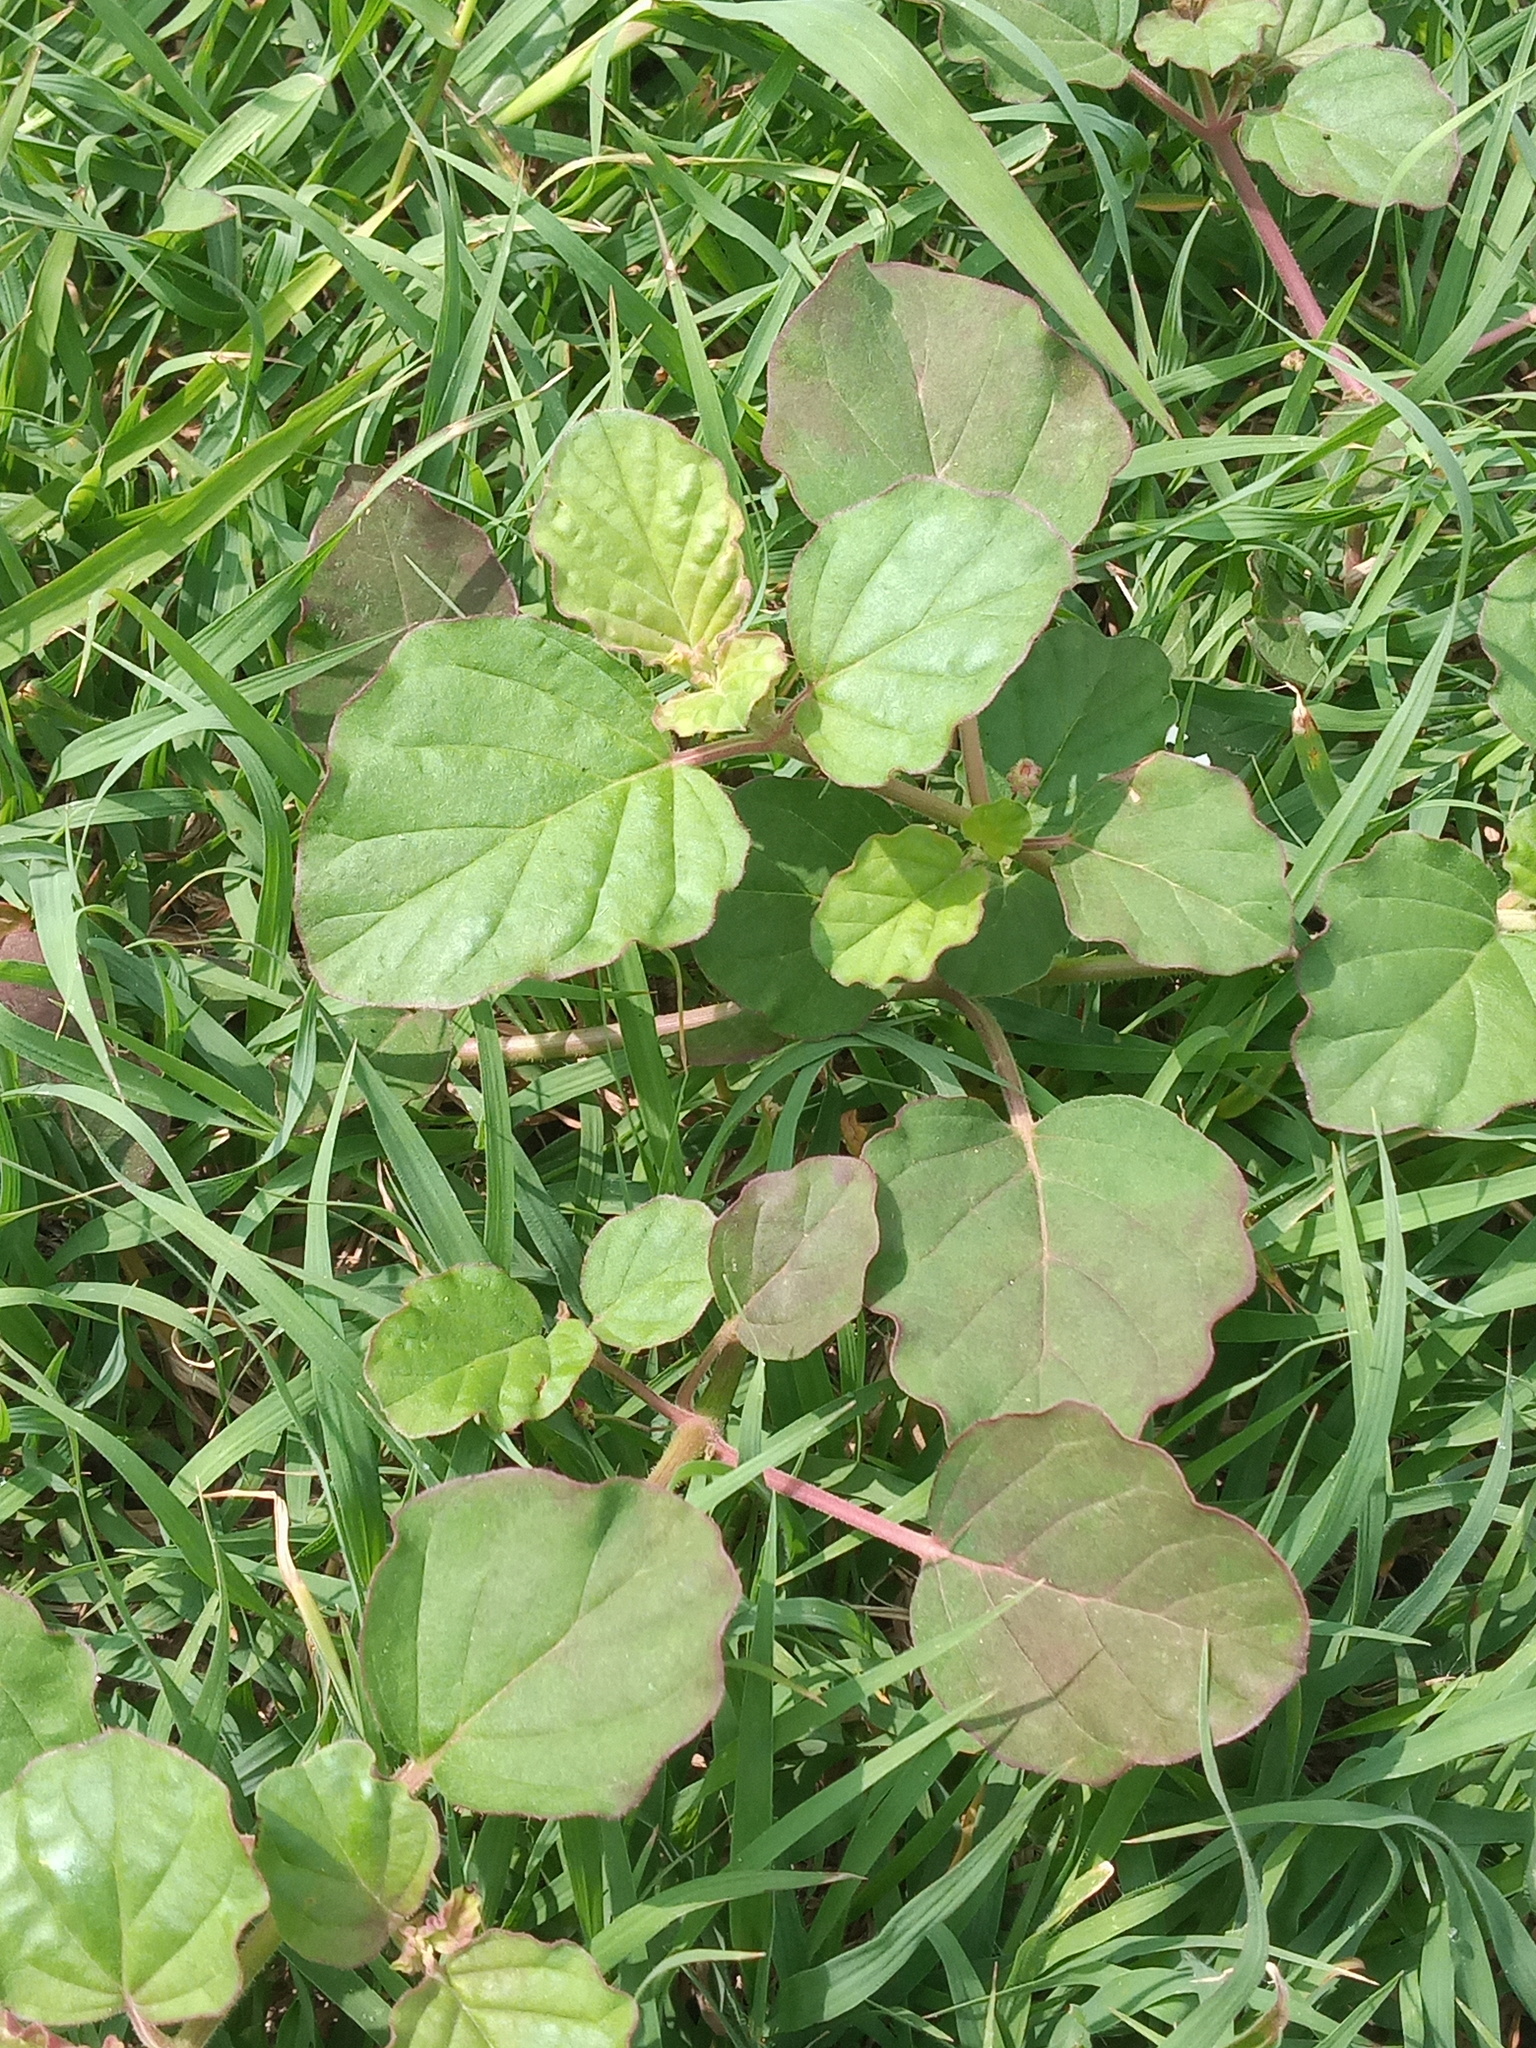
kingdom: Plantae
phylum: Tracheophyta
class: Magnoliopsida
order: Caryophyllales
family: Nyctaginaceae
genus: Boerhavia
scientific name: Boerhavia coccinea
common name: Scarlet spiderling
